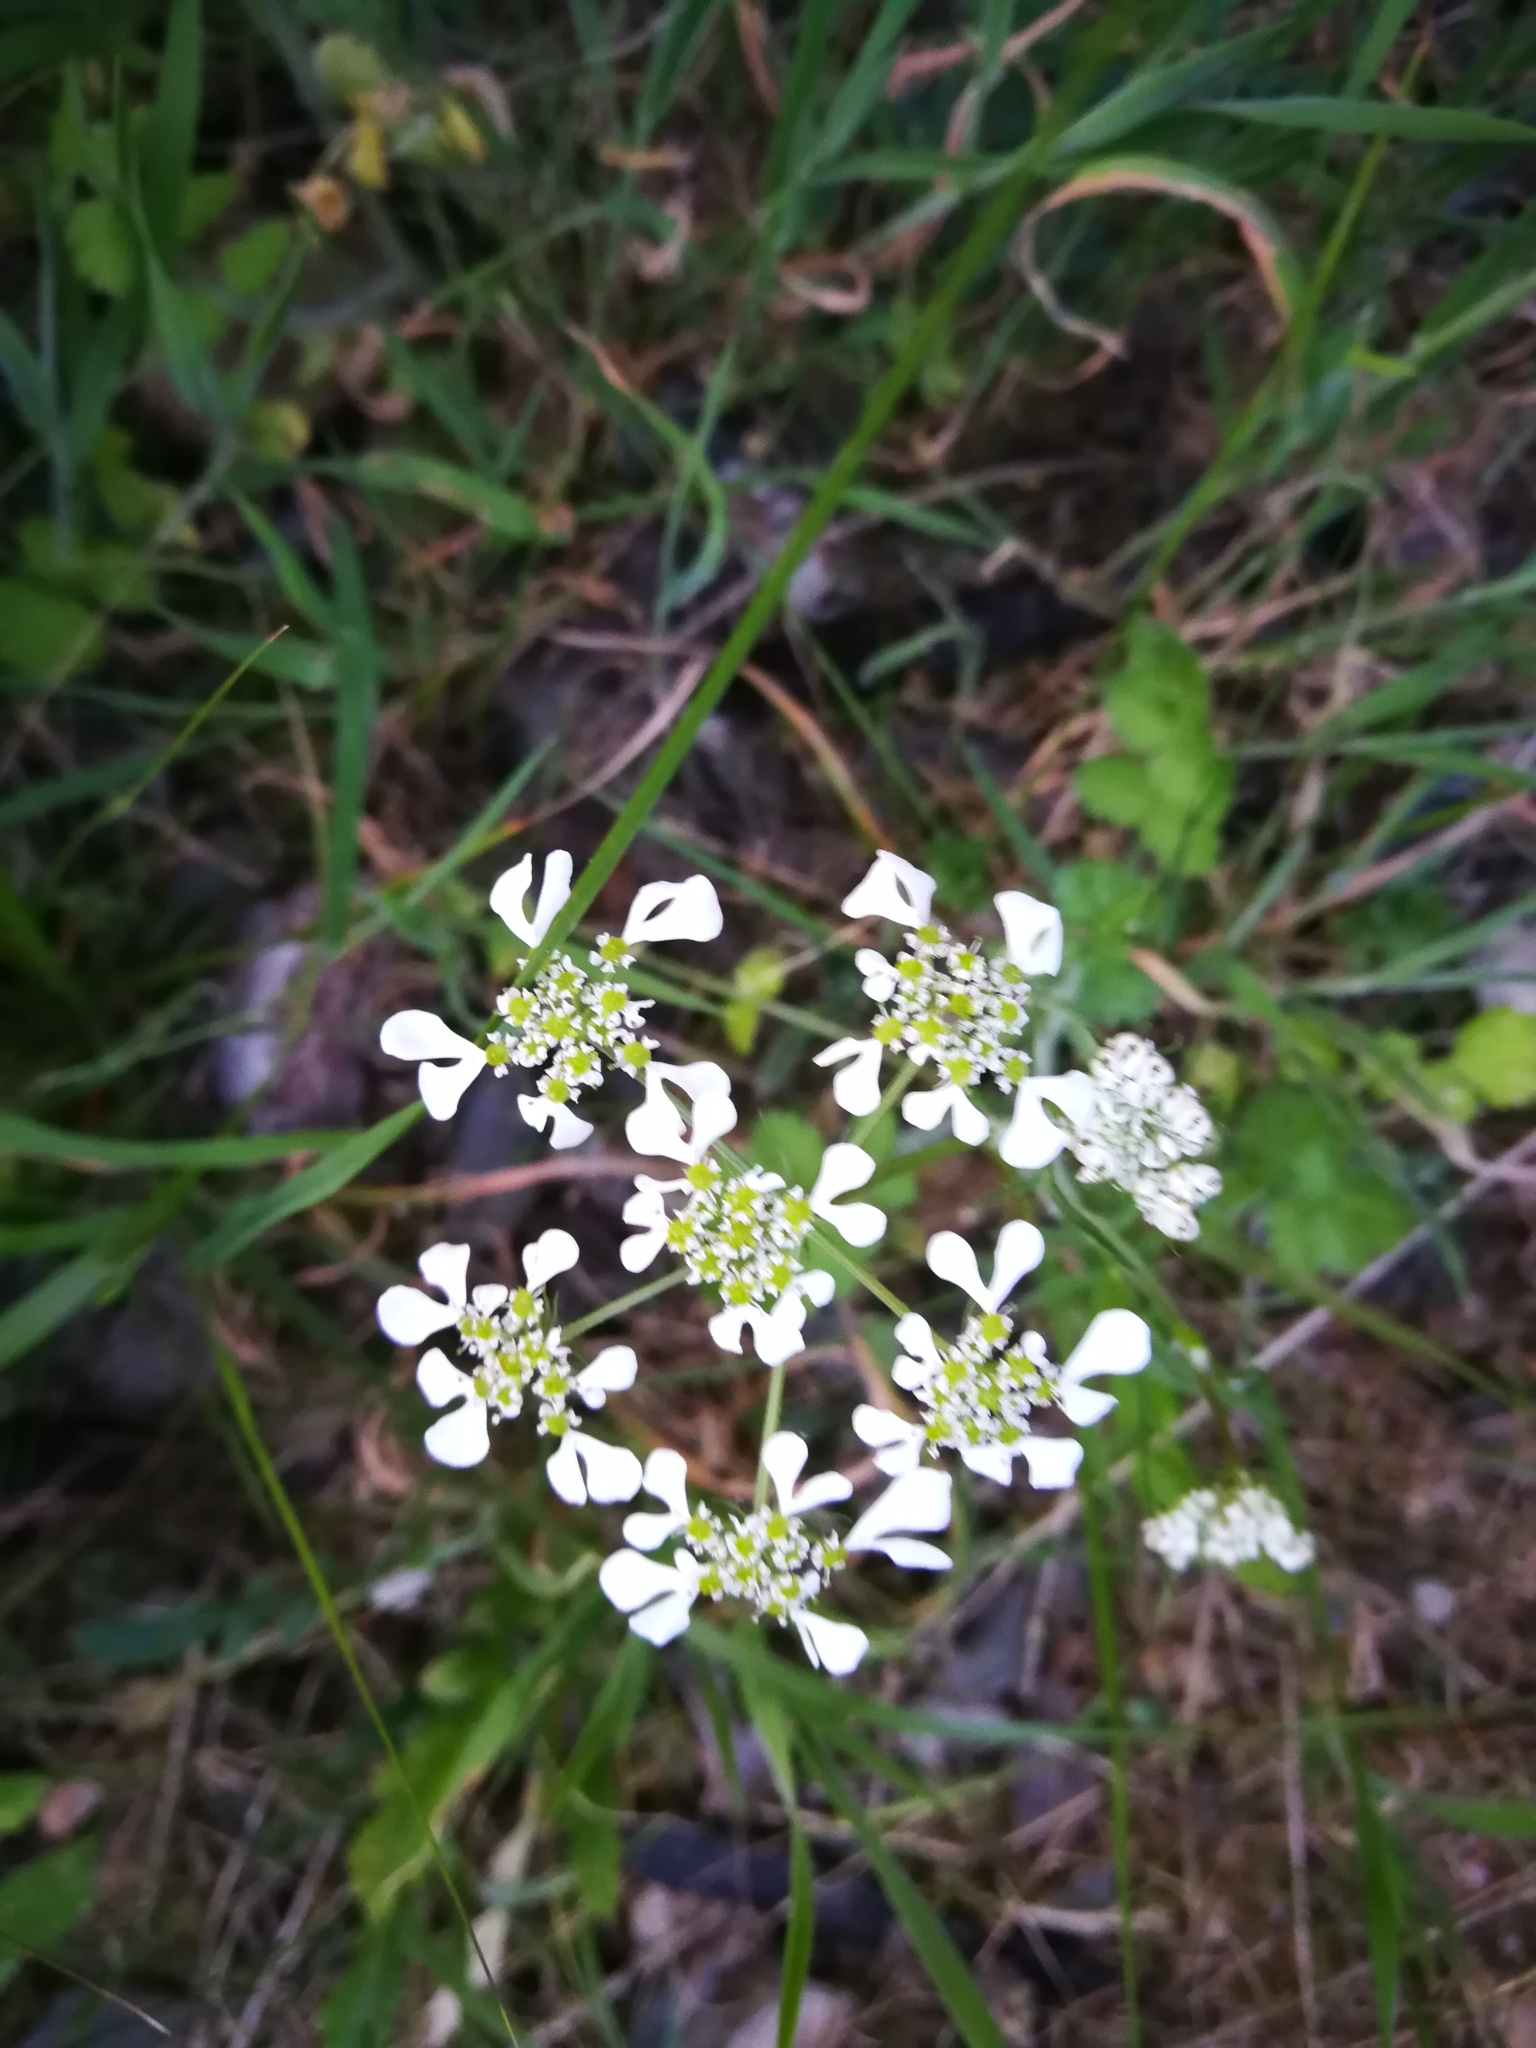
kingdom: Plantae
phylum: Tracheophyta
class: Magnoliopsida
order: Apiales
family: Apiaceae
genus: Tordylium
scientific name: Tordylium apulum
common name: Mediterranean hartwort
